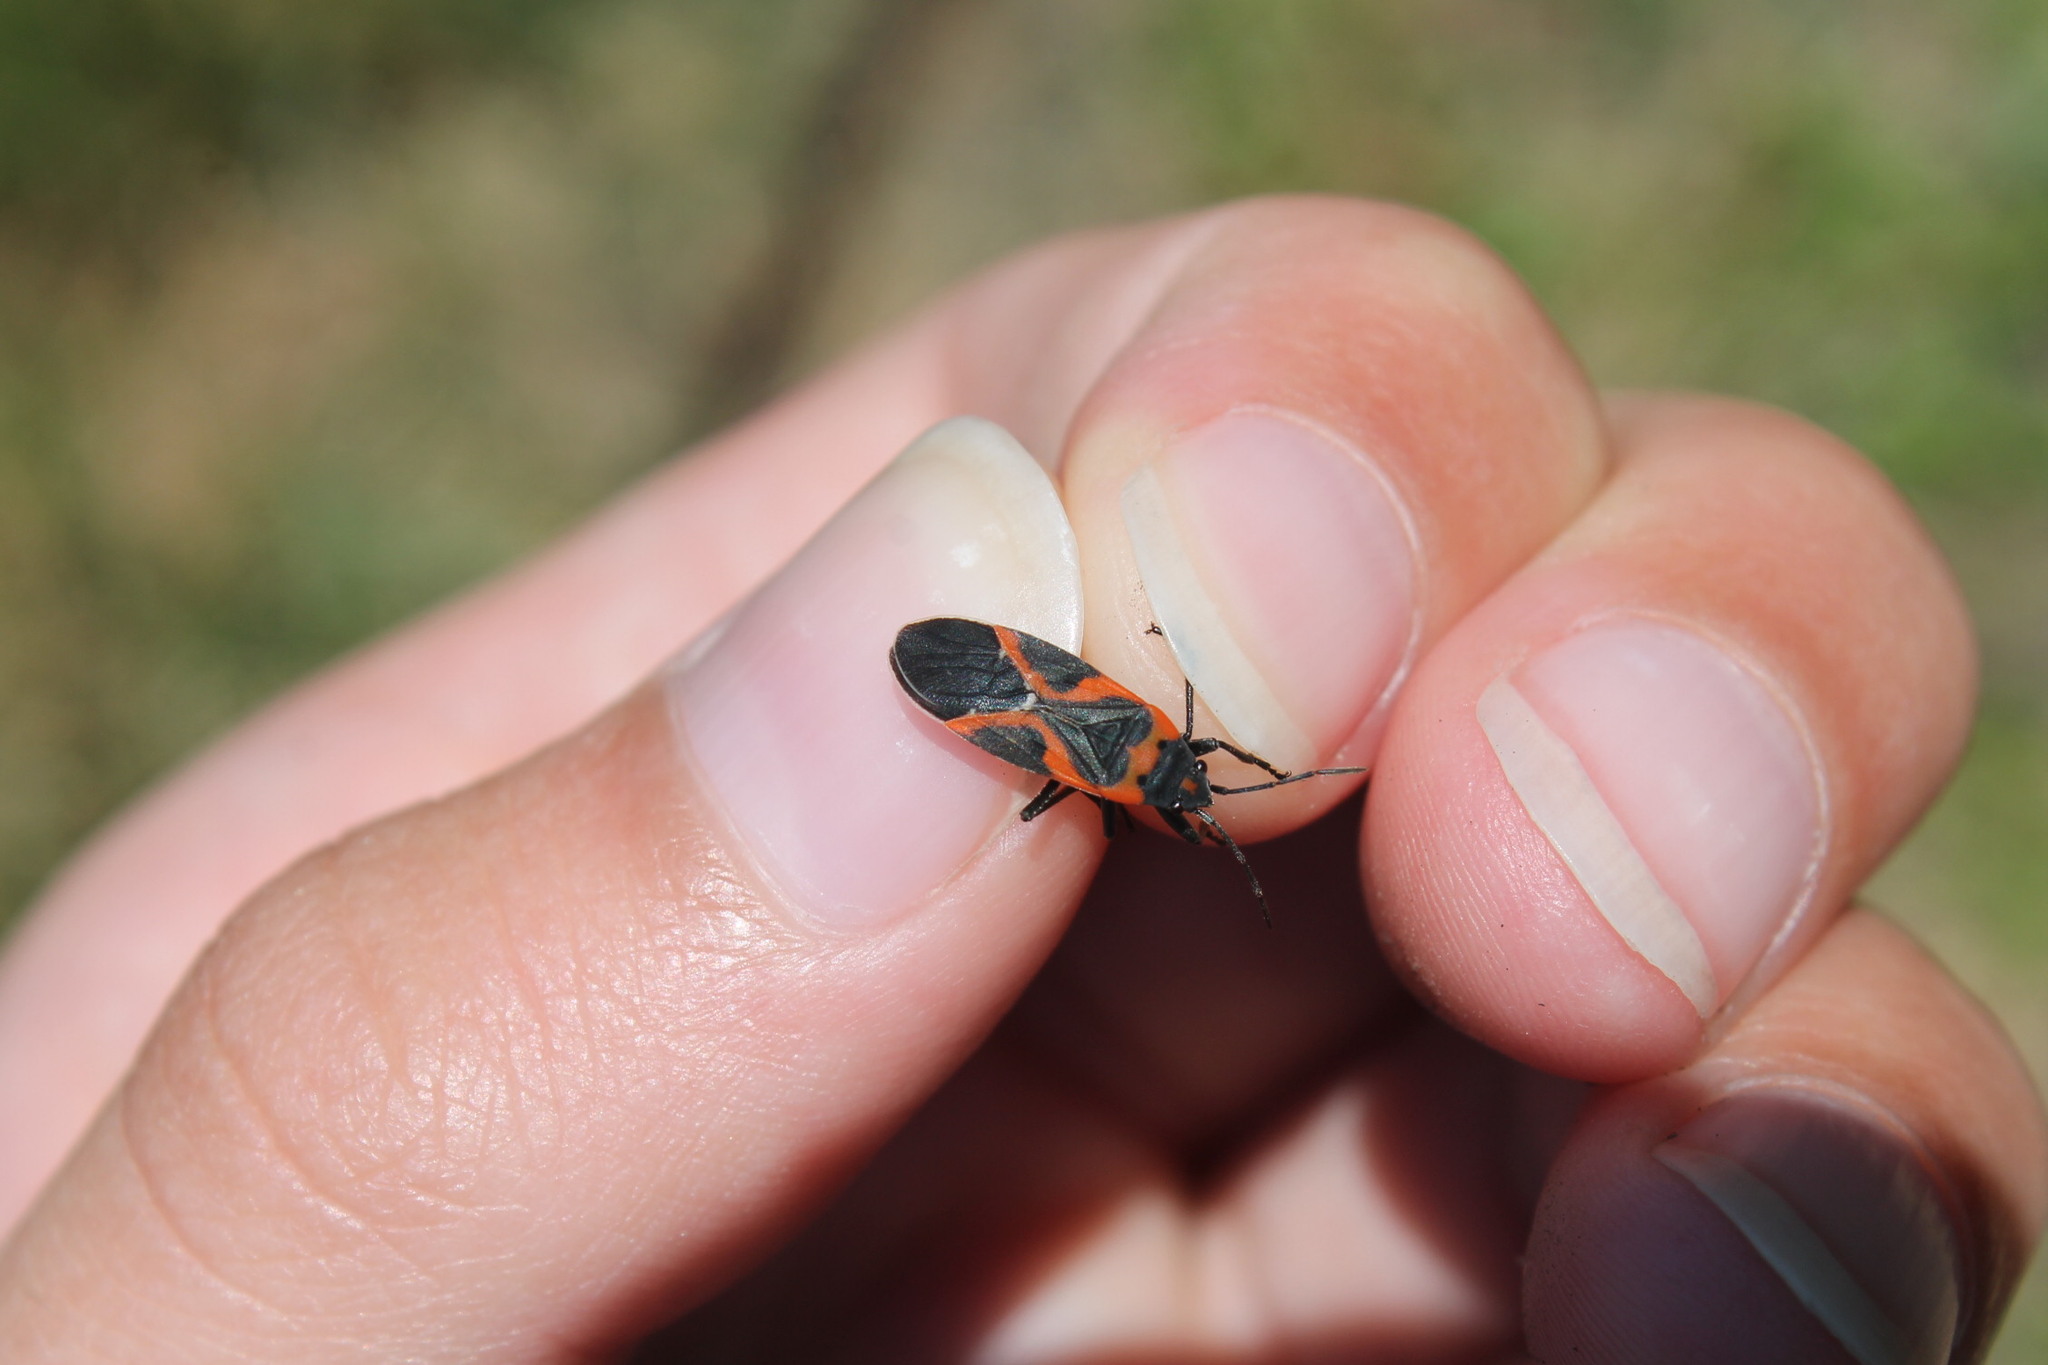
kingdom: Animalia
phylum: Arthropoda
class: Insecta
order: Hemiptera
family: Lygaeidae
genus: Lygaeus
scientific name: Lygaeus kalmii
